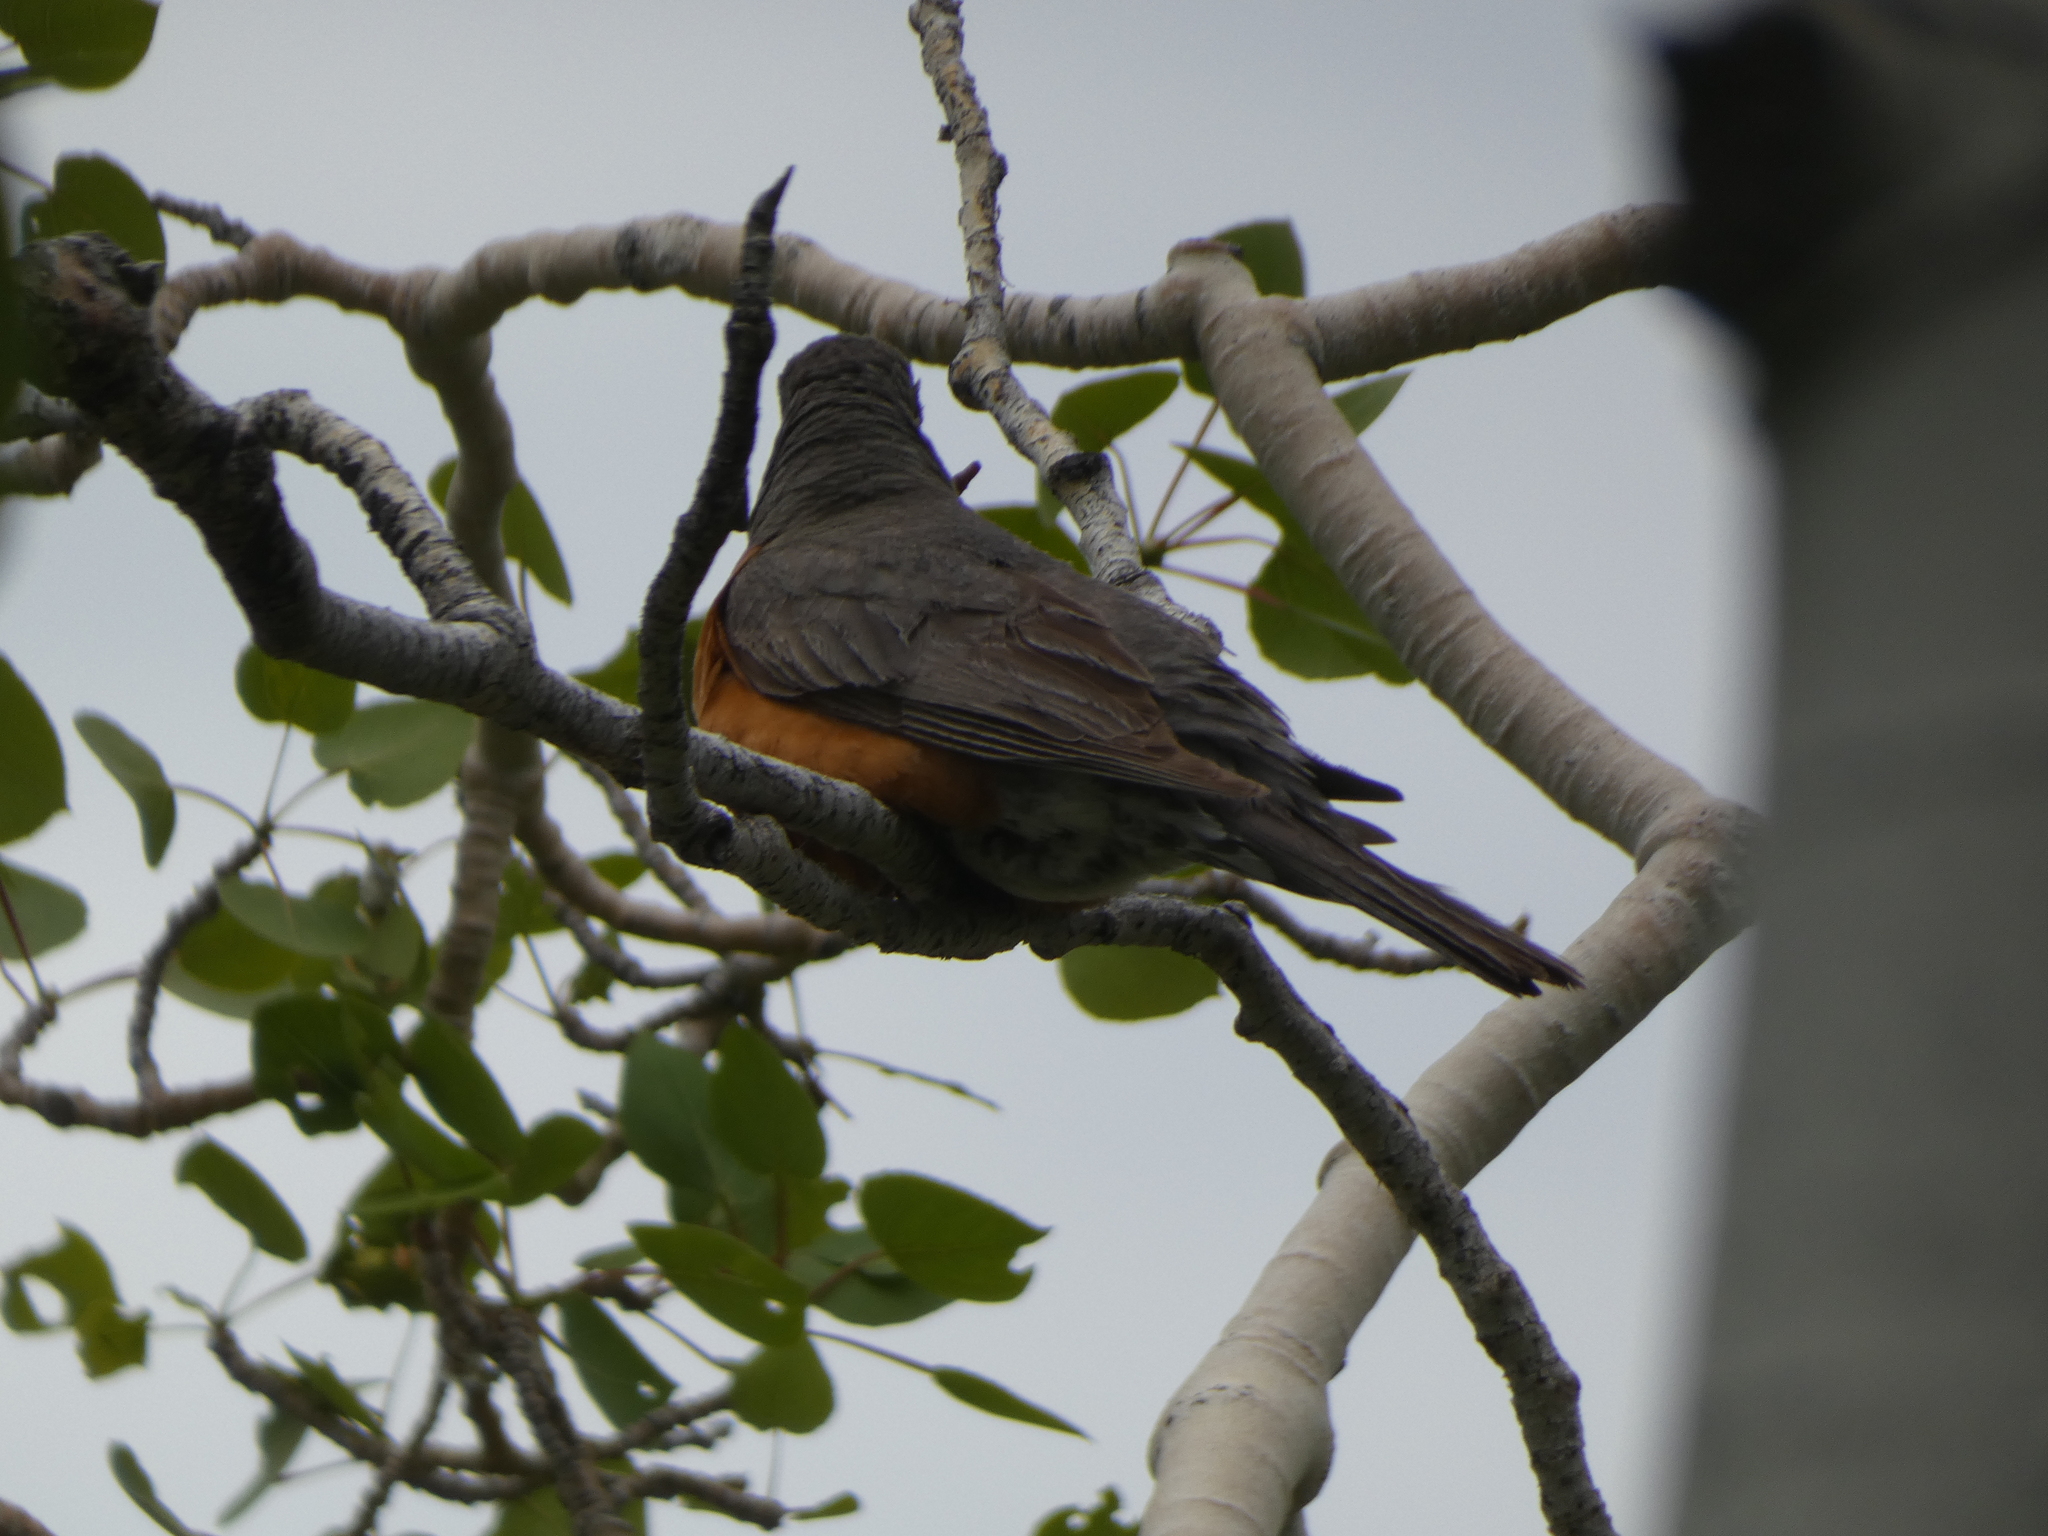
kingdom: Animalia
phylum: Chordata
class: Aves
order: Passeriformes
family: Turdidae
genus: Turdus
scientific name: Turdus migratorius
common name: American robin
